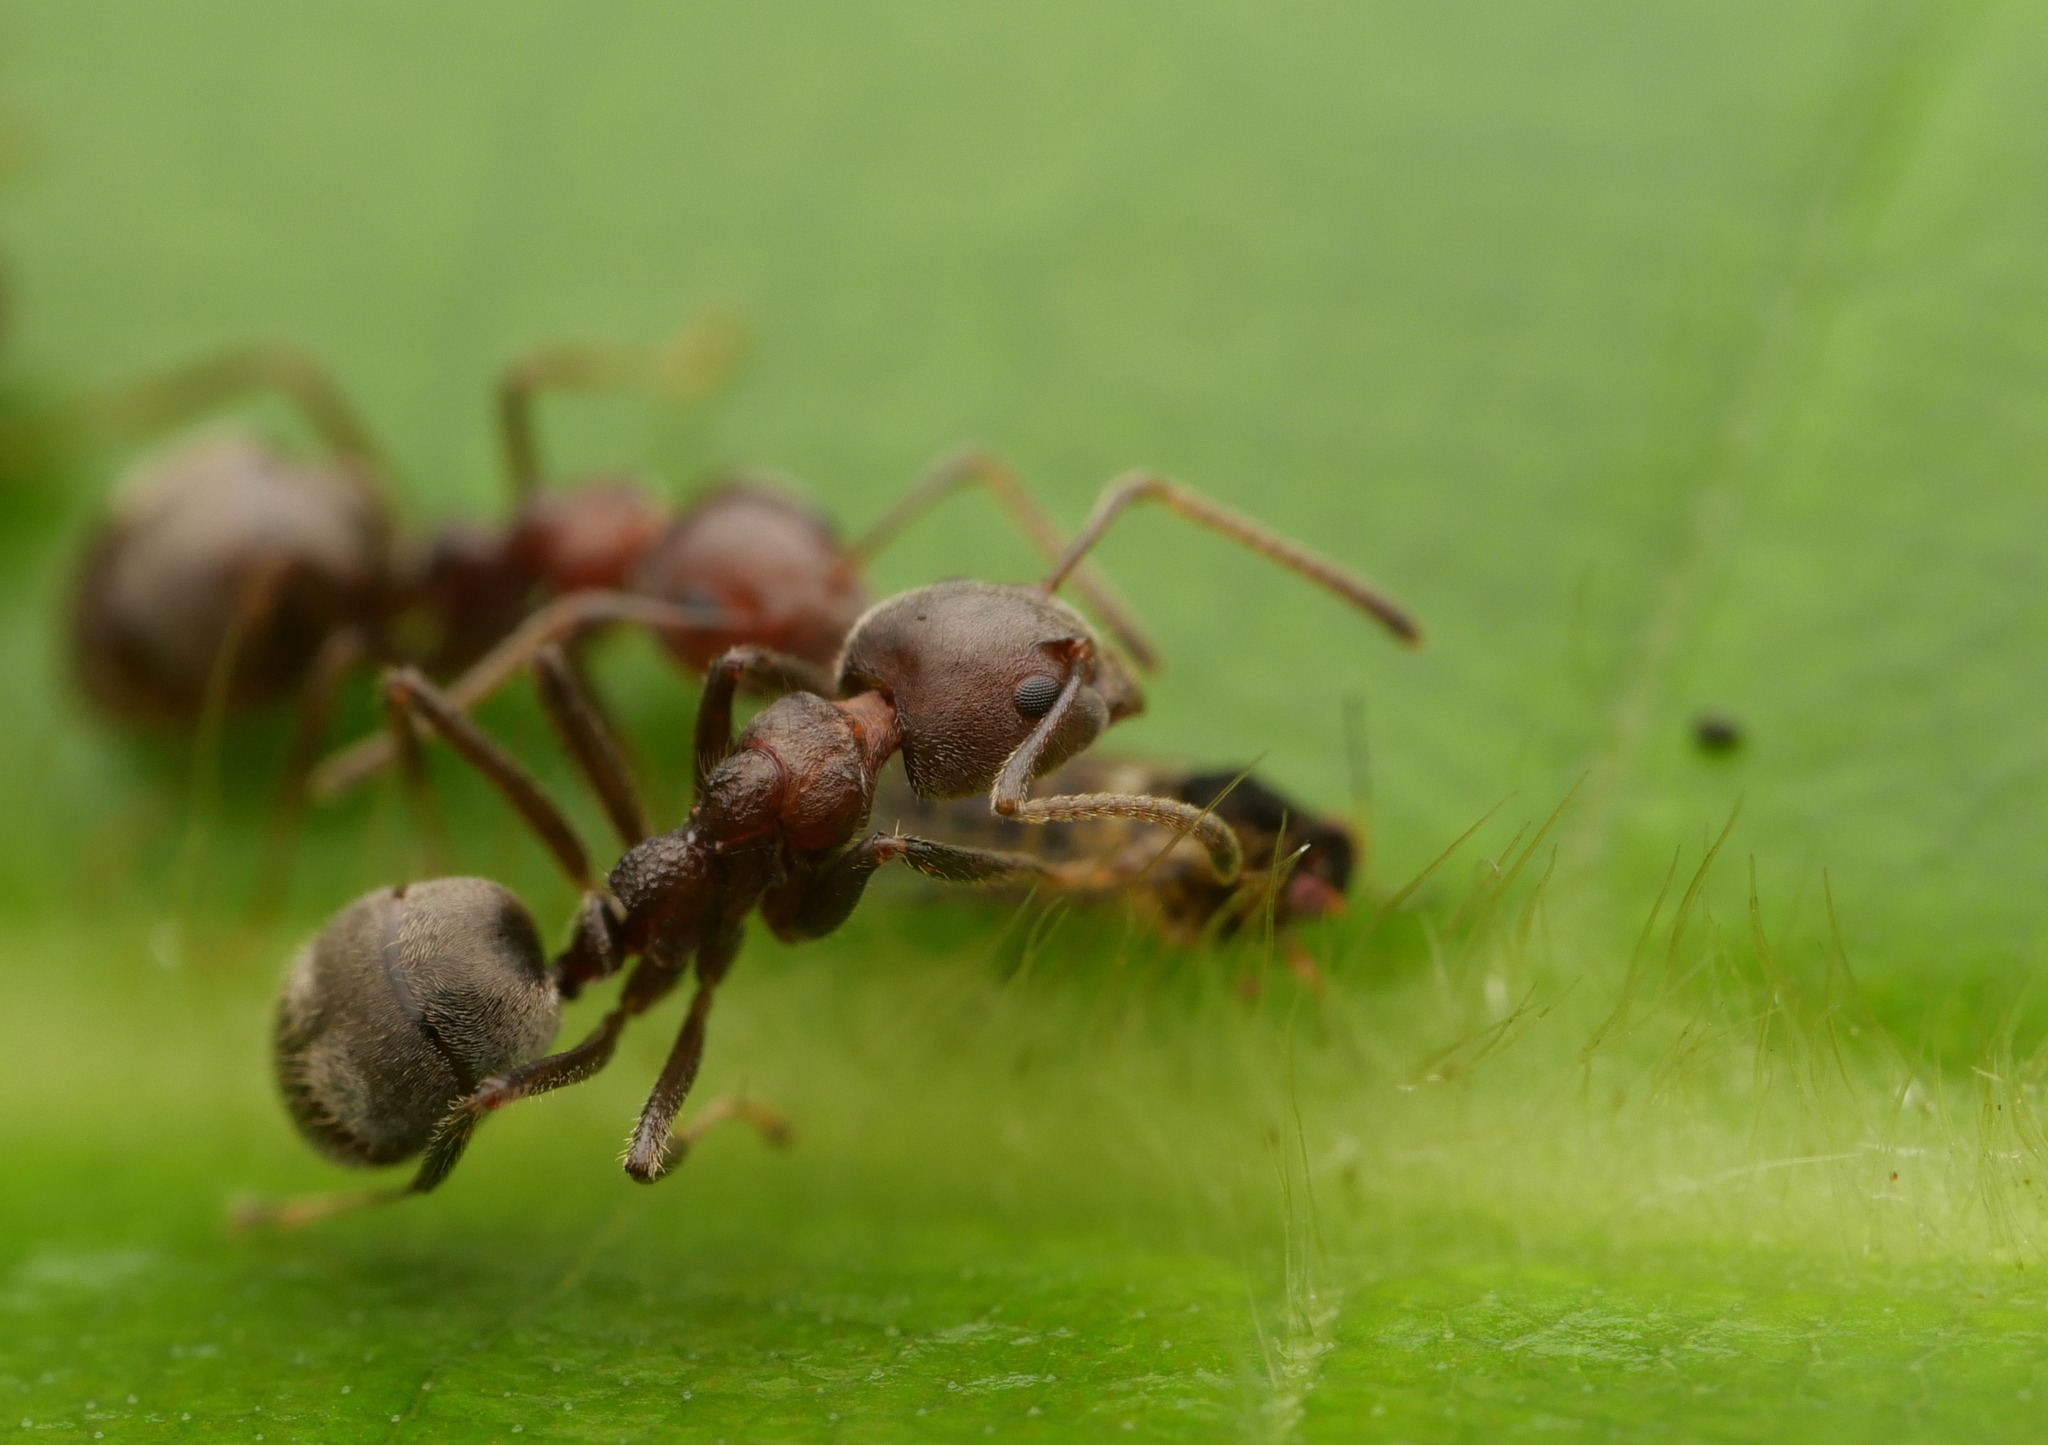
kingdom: Animalia
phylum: Arthropoda
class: Insecta
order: Hymenoptera
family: Formicidae
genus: Dolichoderus
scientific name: Dolichoderus thoracicus
